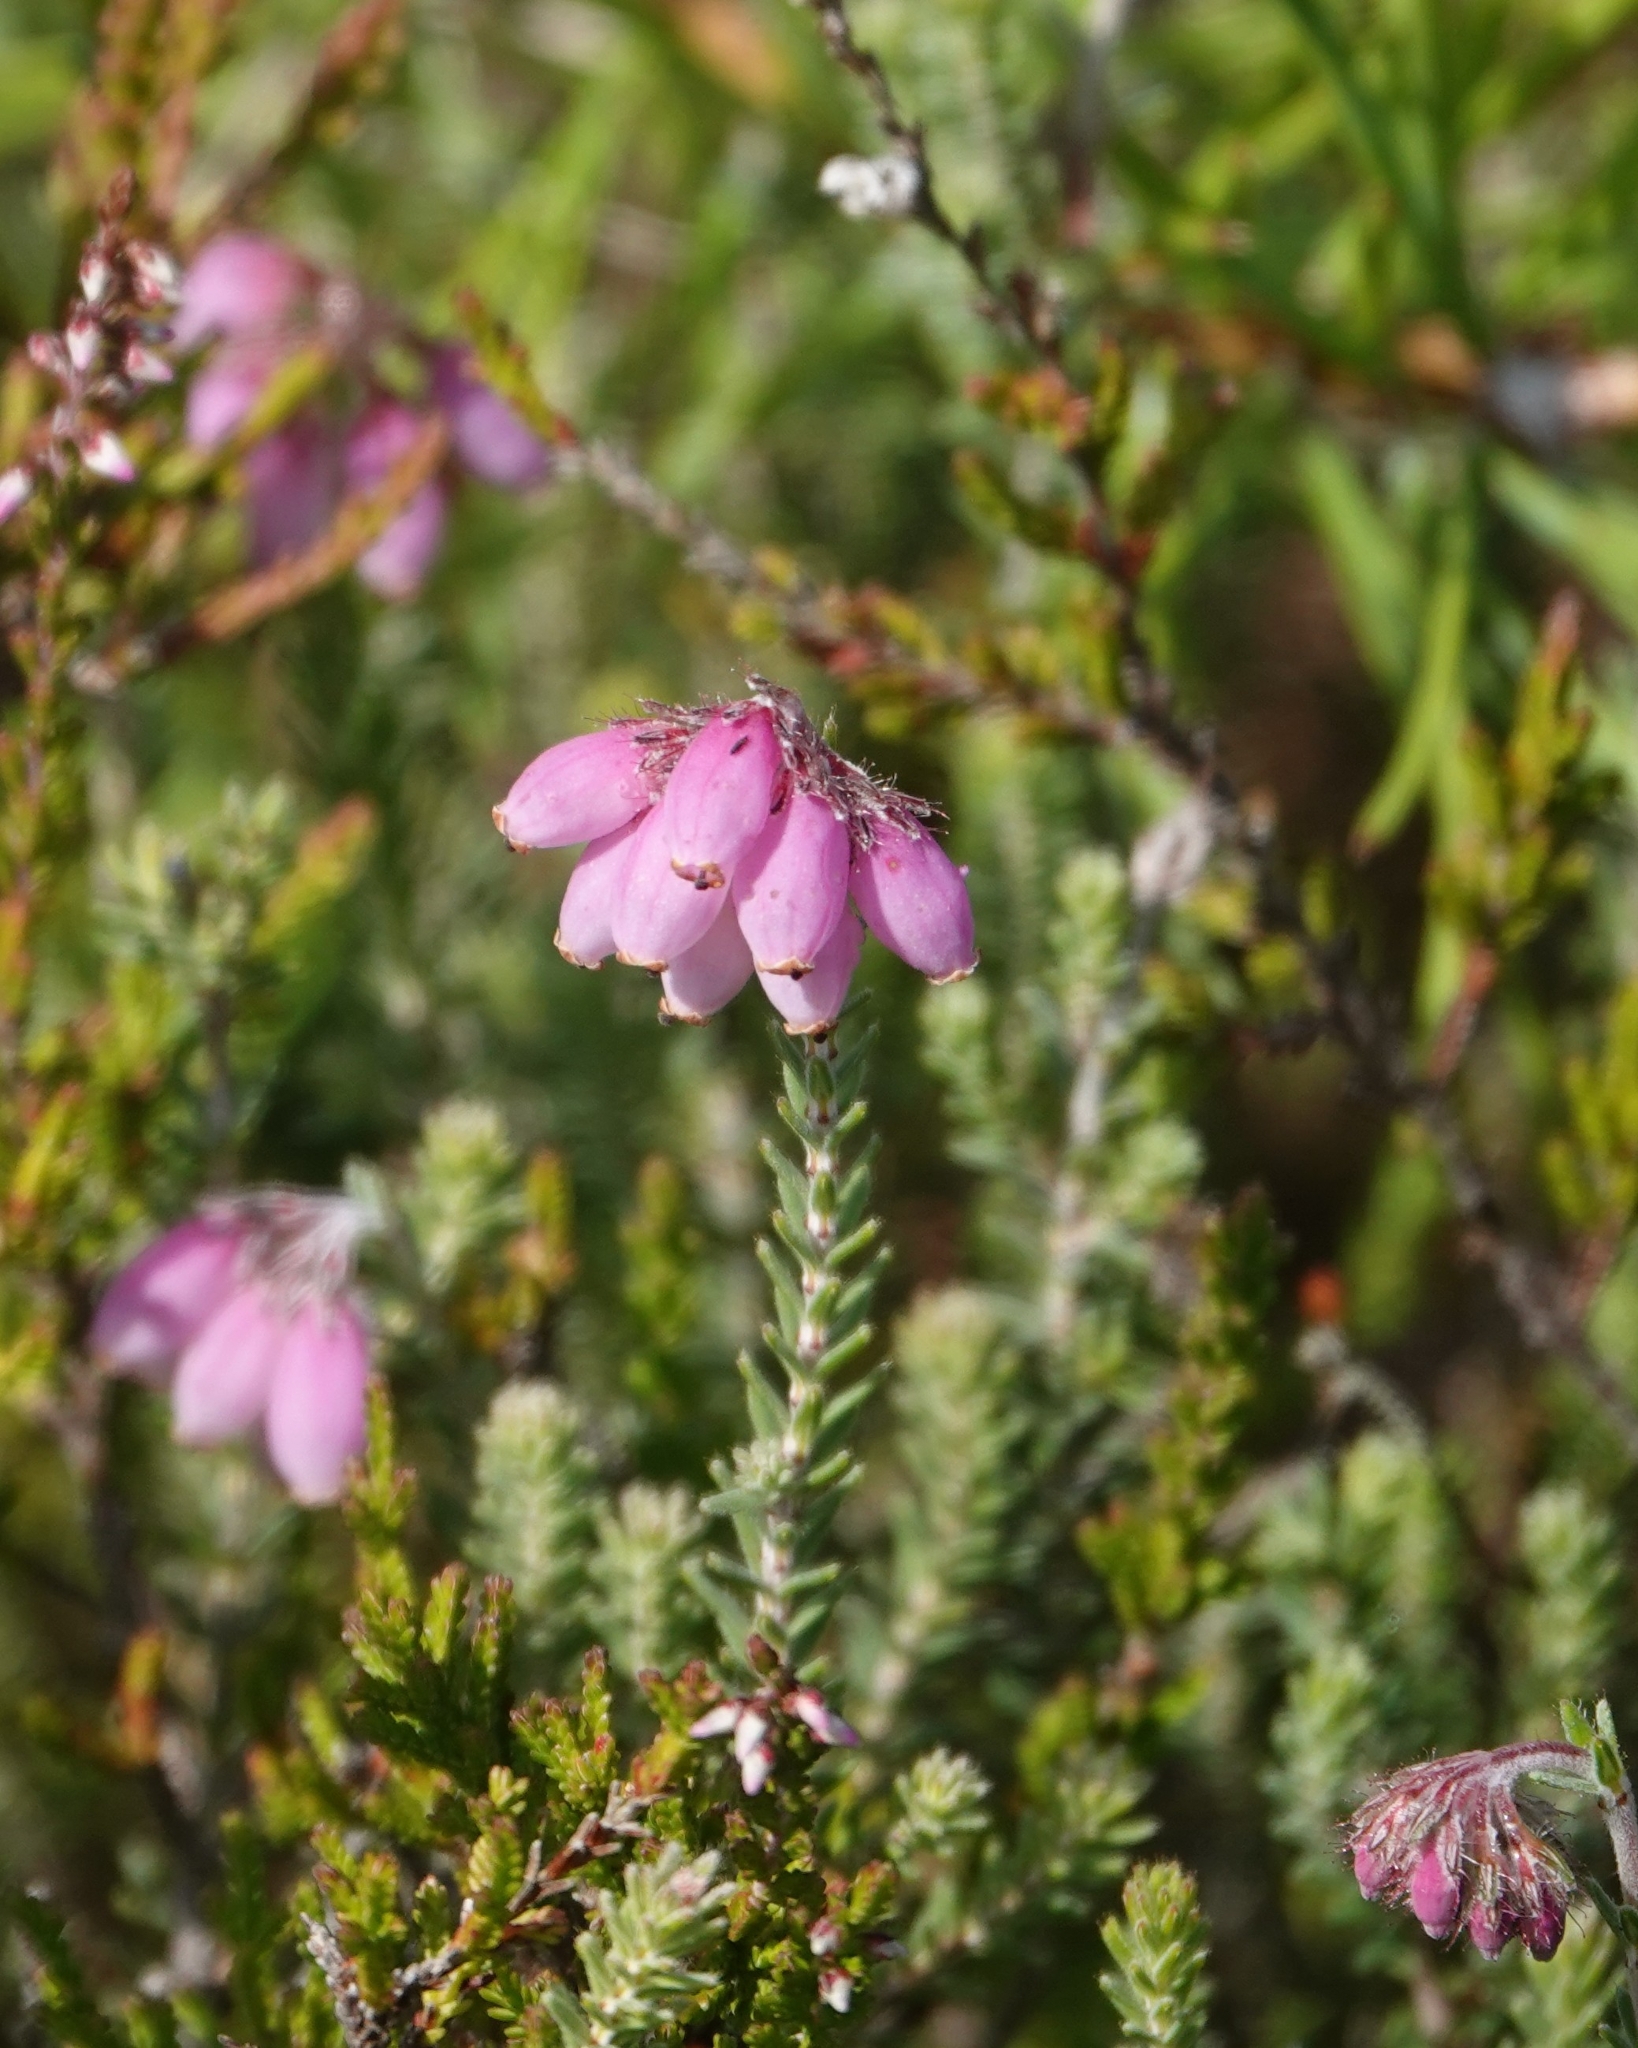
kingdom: Plantae
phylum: Tracheophyta
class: Magnoliopsida
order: Ericales
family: Ericaceae
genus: Erica
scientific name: Erica tetralix
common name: Cross-leaved heath
